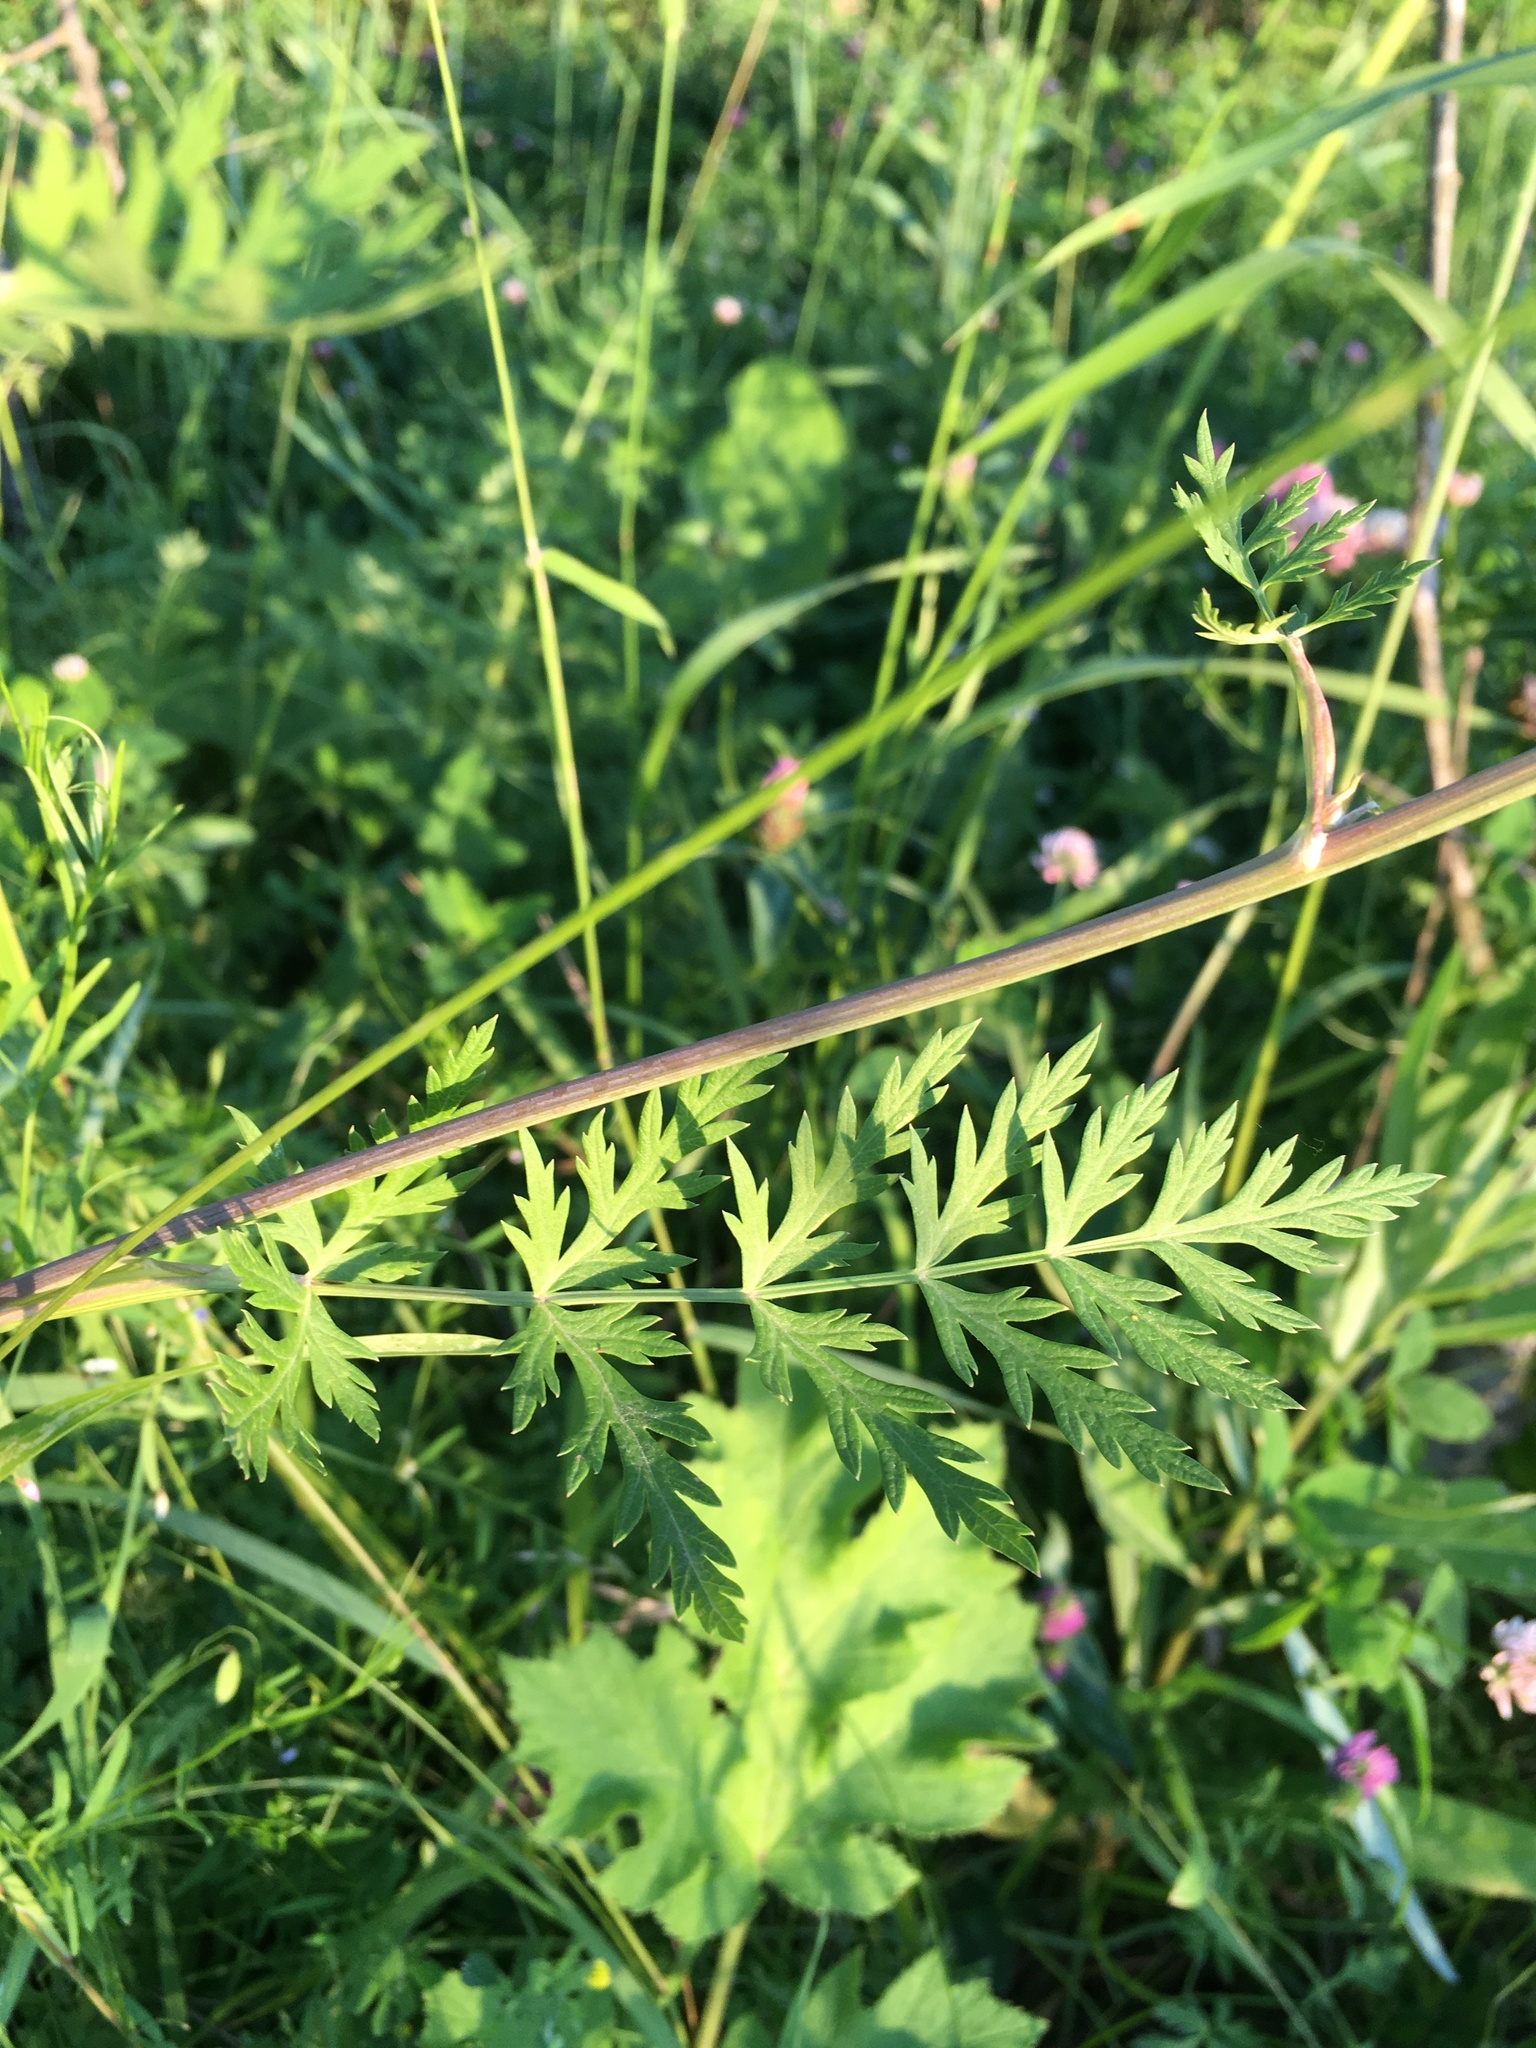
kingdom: Plantae
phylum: Tracheophyta
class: Magnoliopsida
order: Apiales
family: Apiaceae
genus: Seseli
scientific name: Seseli libanotis
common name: Mooncarrot
